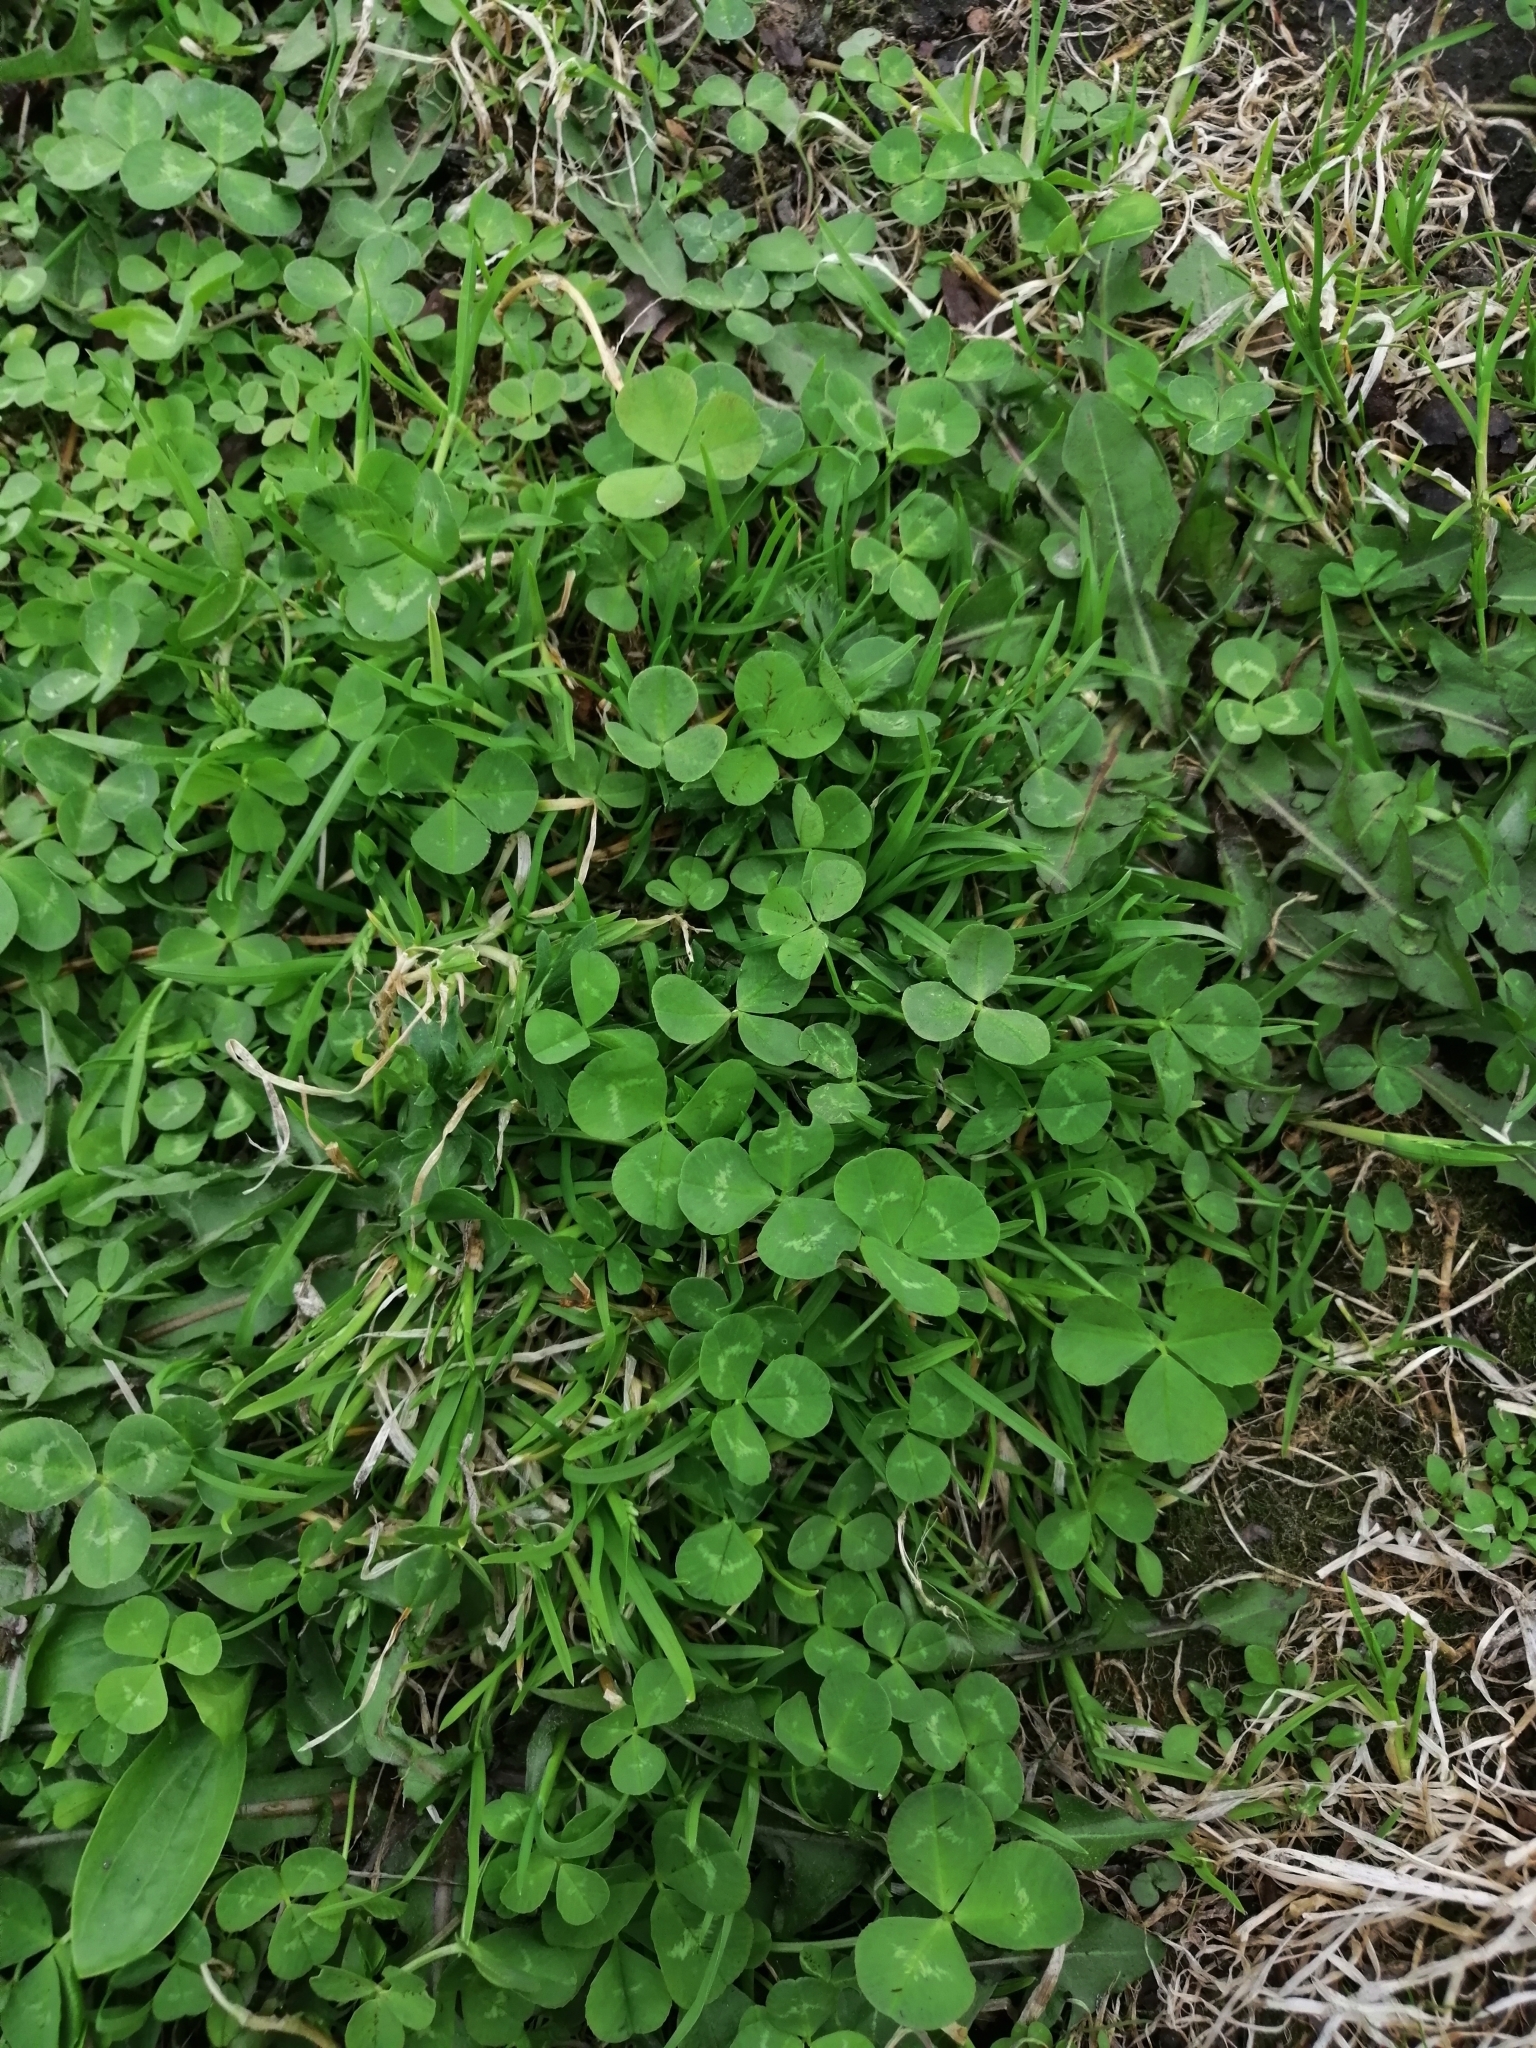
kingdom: Plantae
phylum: Tracheophyta
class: Magnoliopsida
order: Fabales
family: Fabaceae
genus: Trifolium
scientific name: Trifolium repens
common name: White clover
